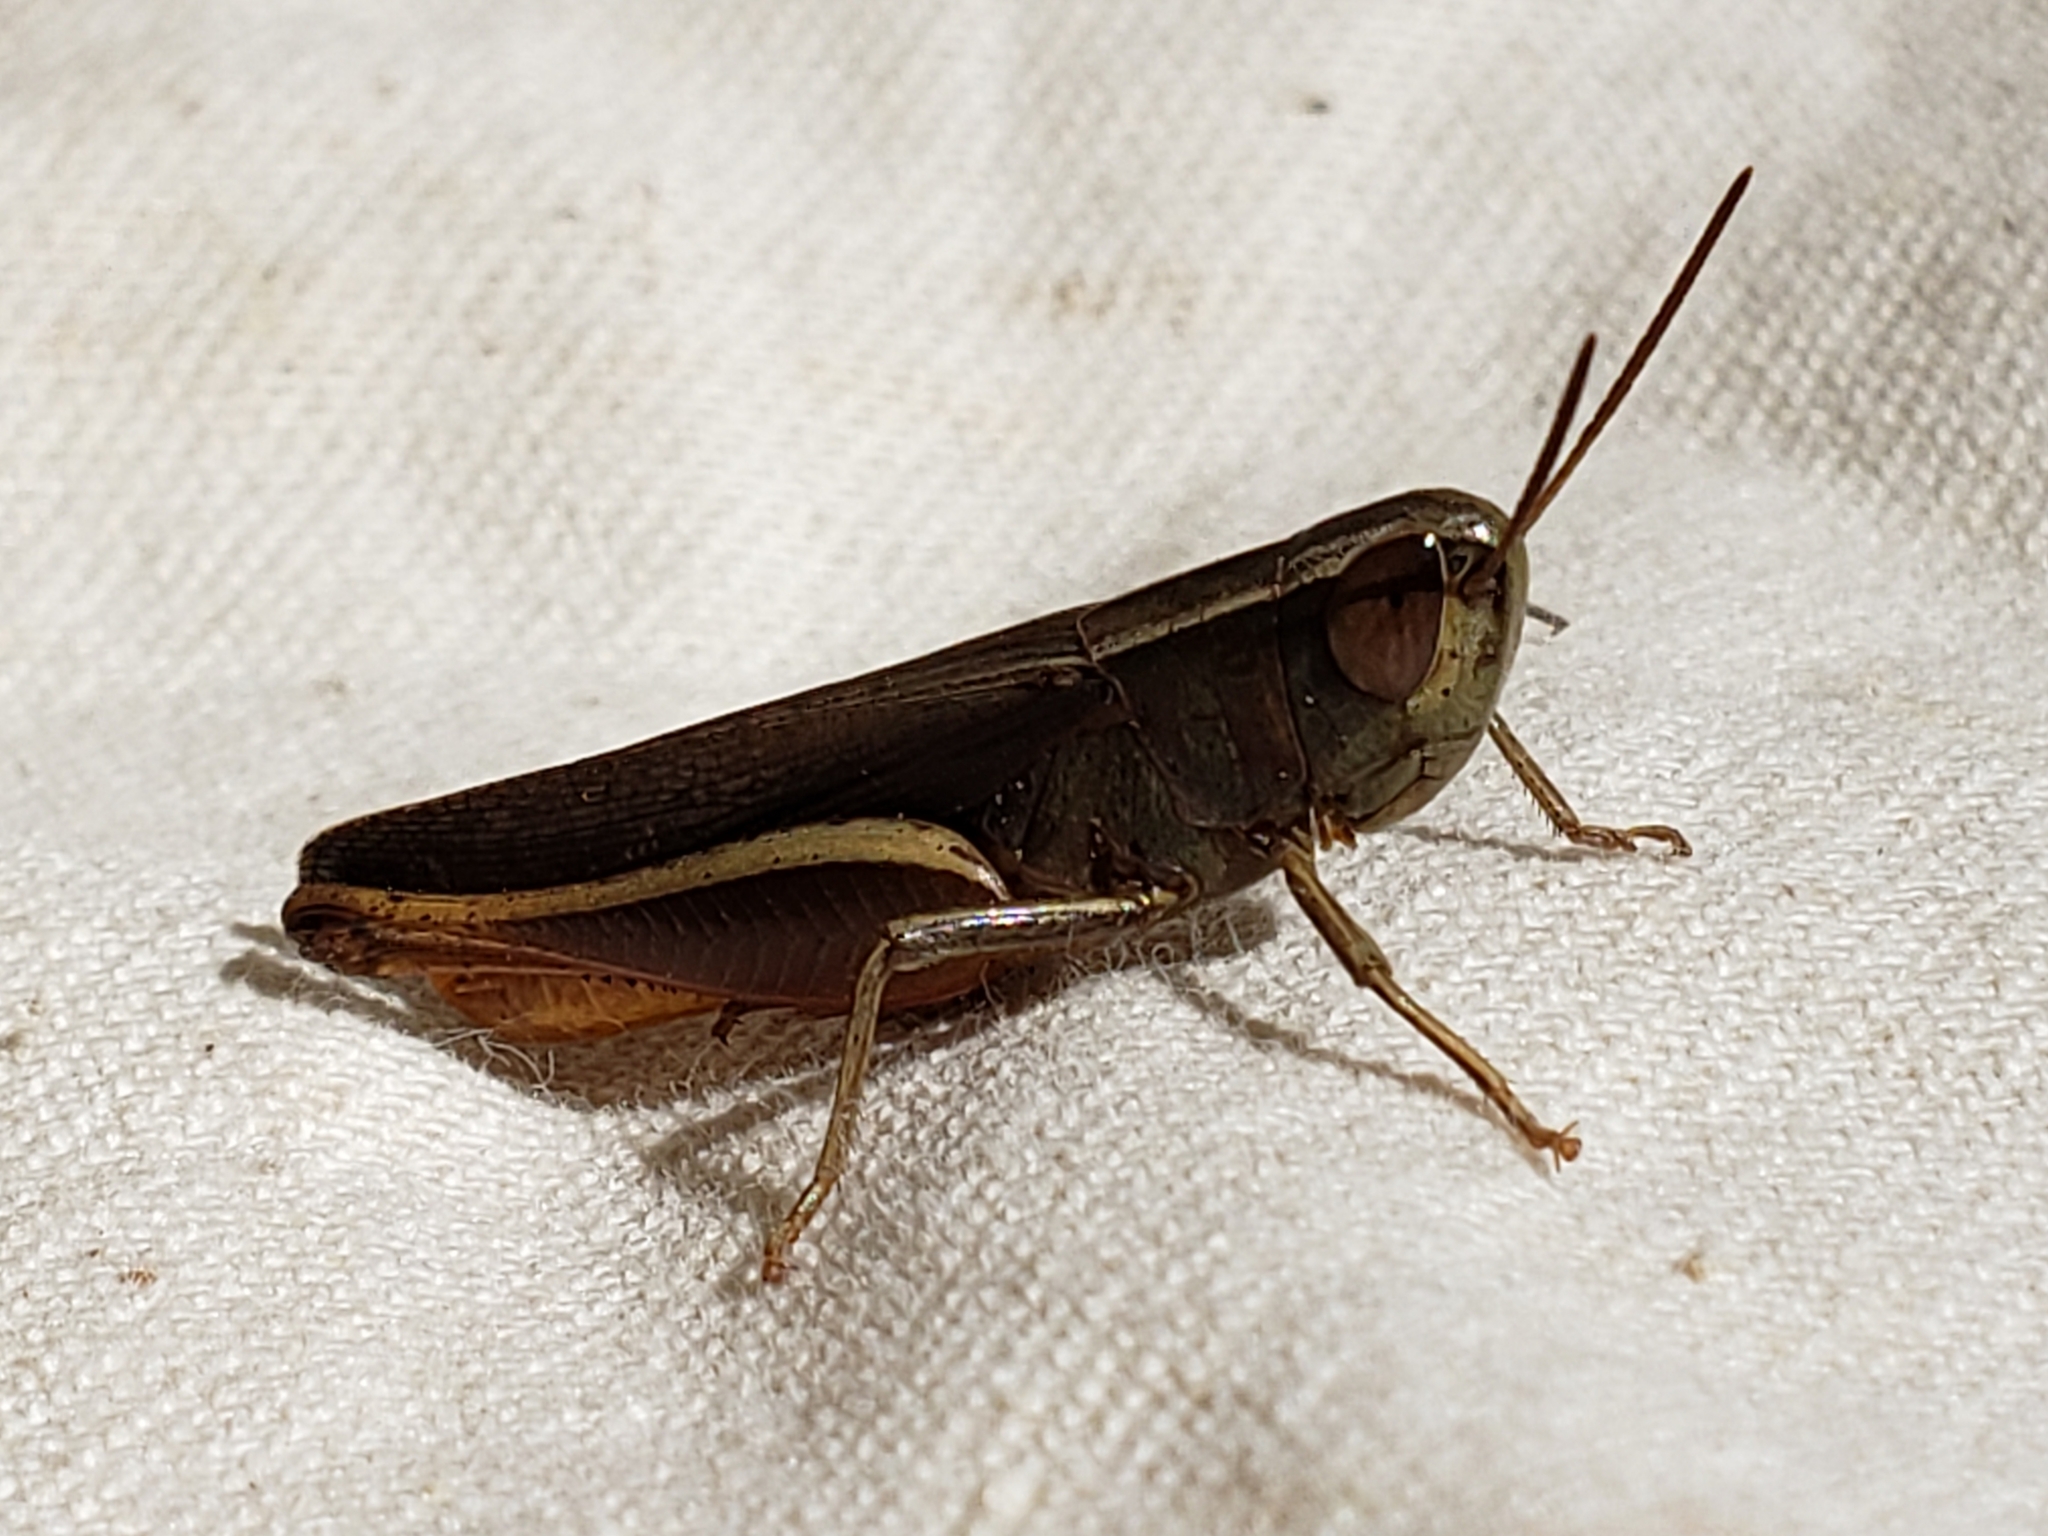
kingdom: Animalia
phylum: Arthropoda
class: Insecta
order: Orthoptera
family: Acrididae
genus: Amblytropidia
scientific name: Amblytropidia mysteca
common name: Brown winter grasshopper
